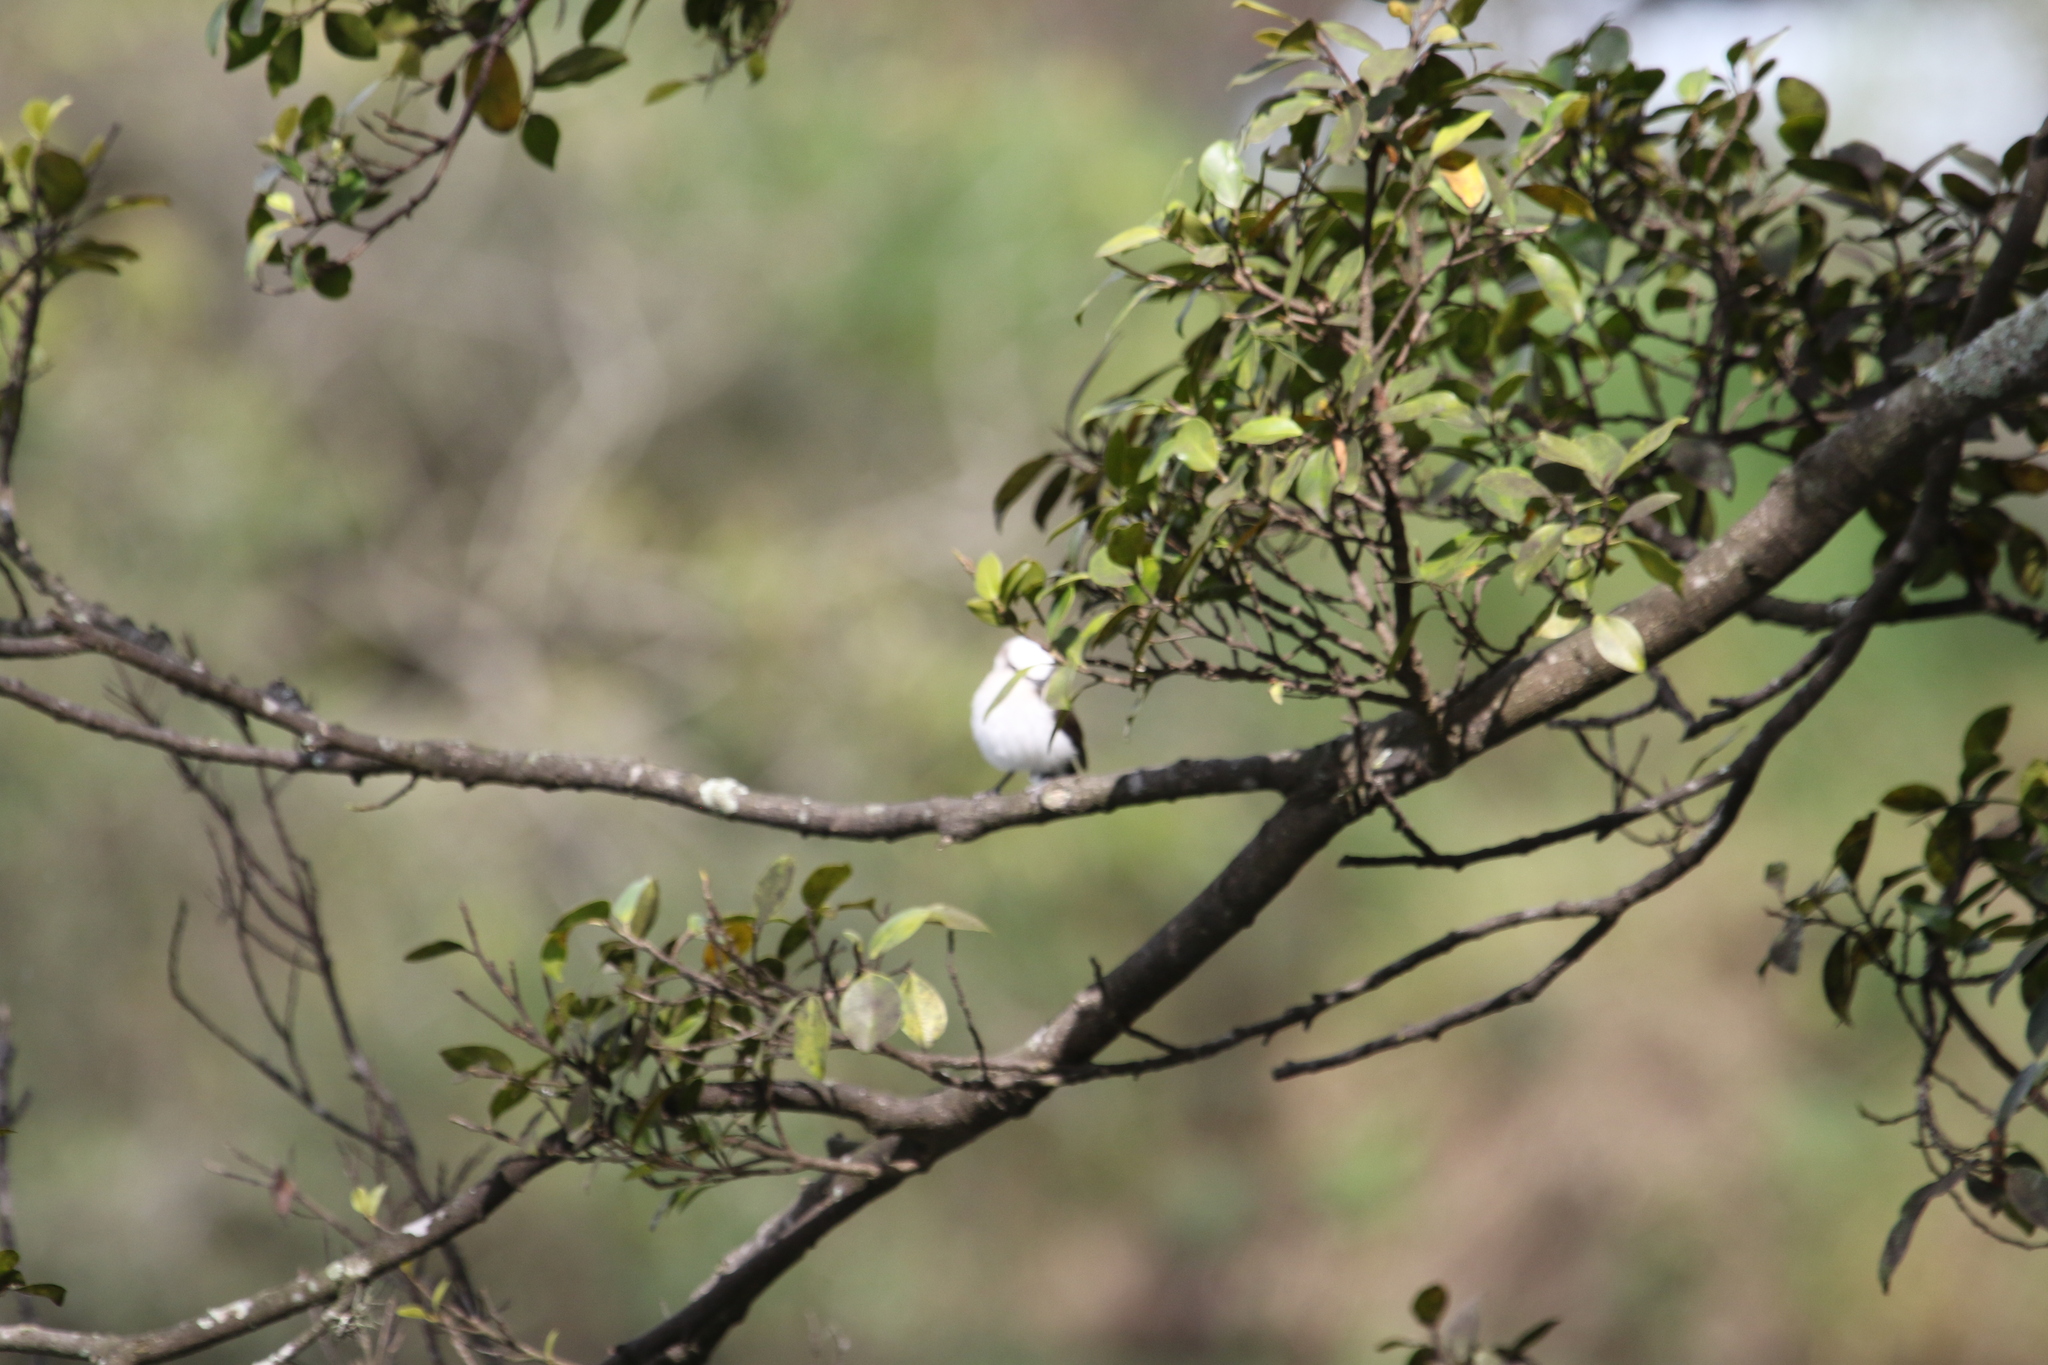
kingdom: Animalia
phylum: Chordata
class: Aves
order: Passeriformes
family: Tyrannidae
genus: Fluvicola
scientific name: Fluvicola nengeta
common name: Masked water tyrant
